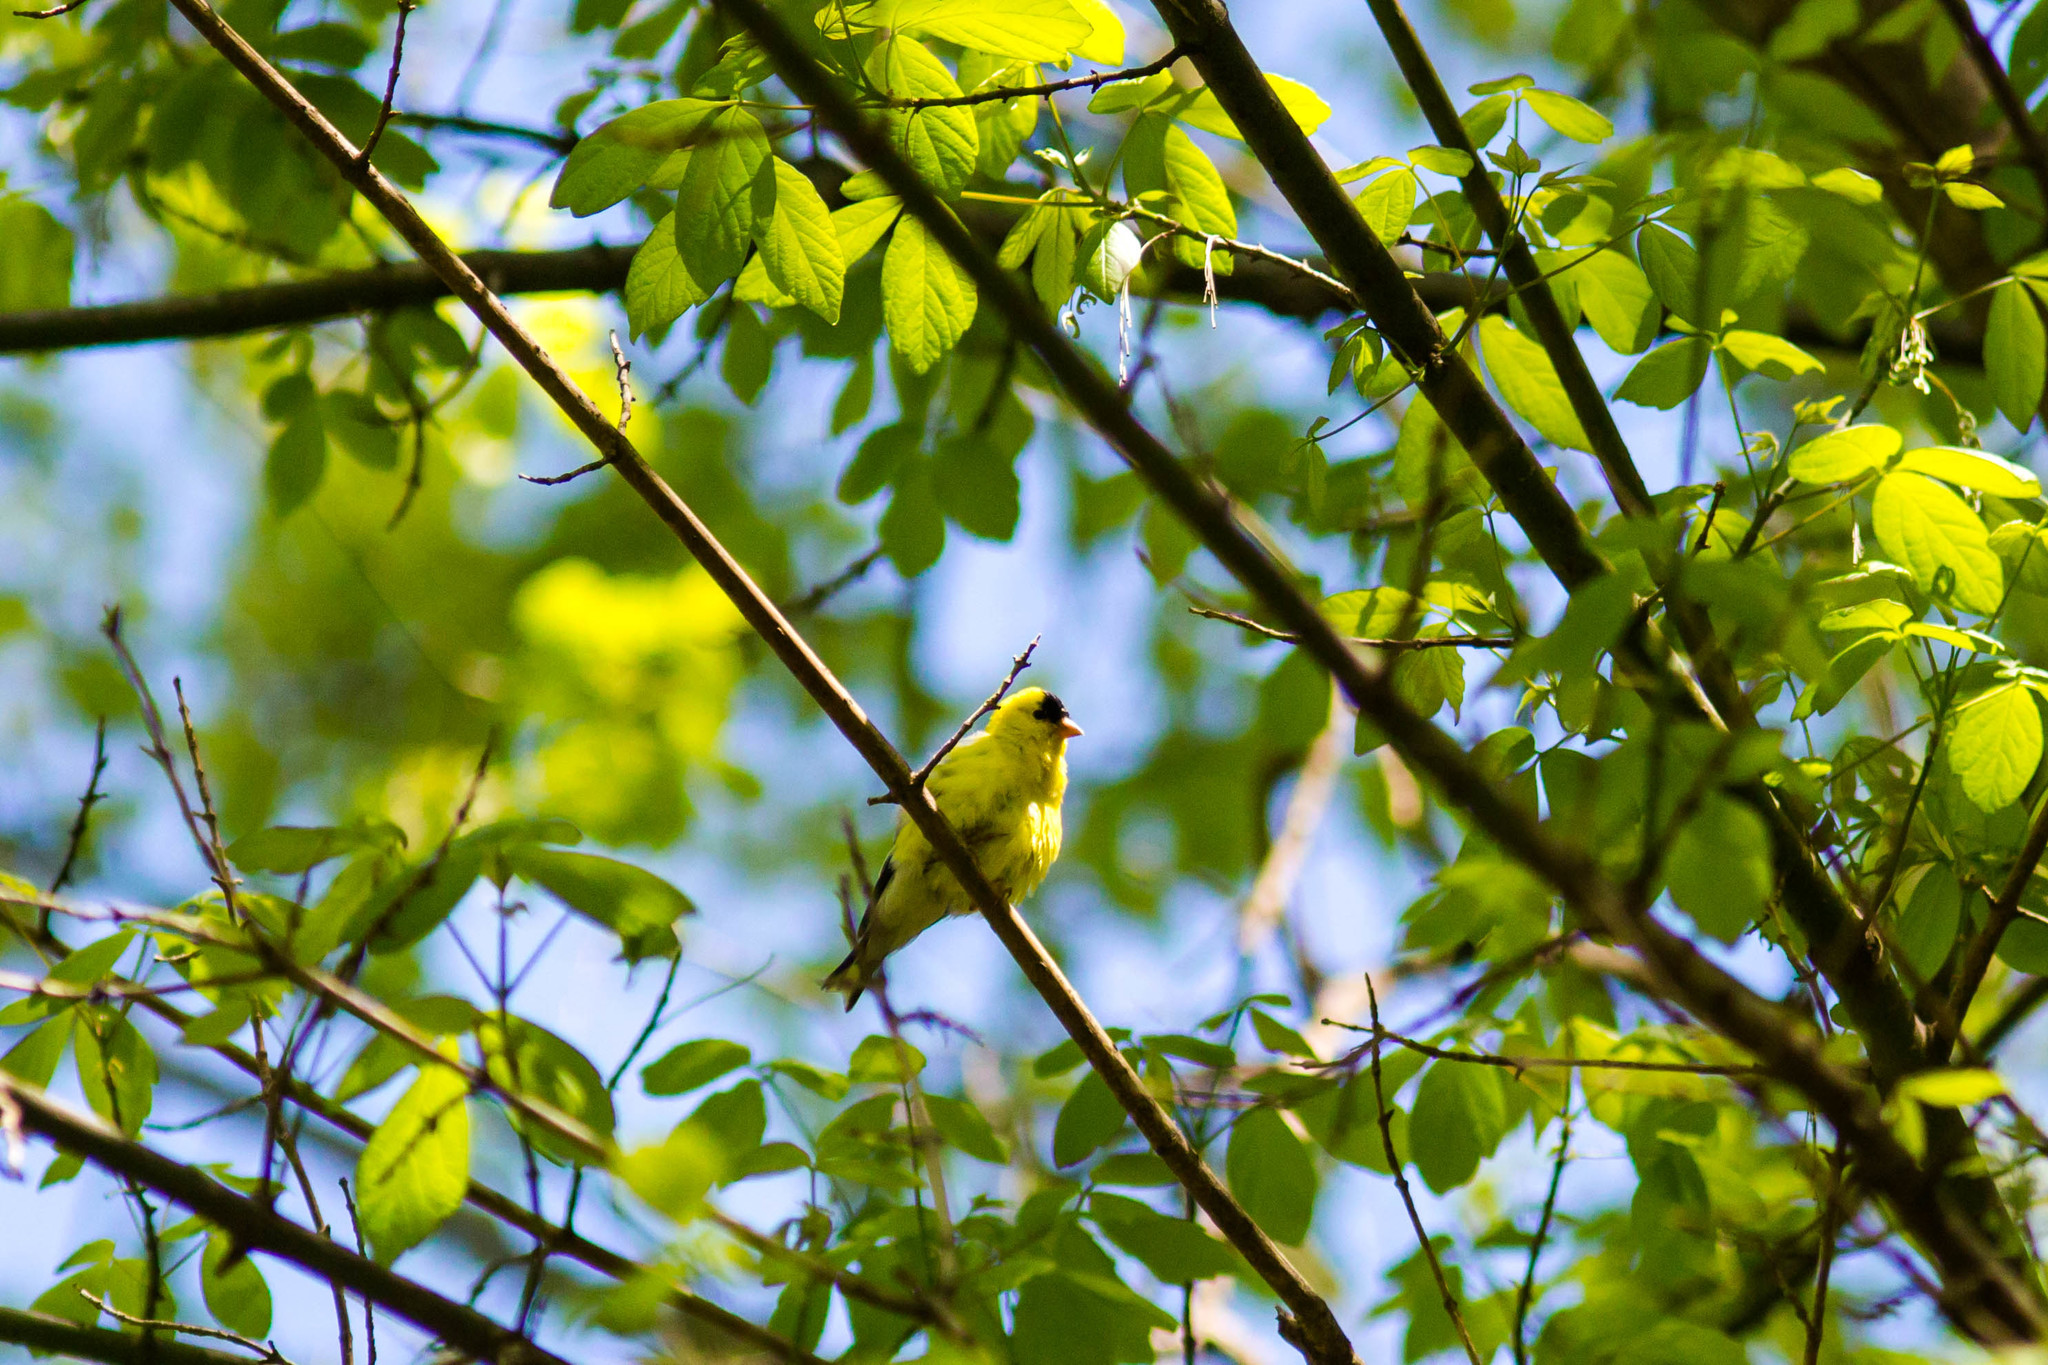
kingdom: Animalia
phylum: Chordata
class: Aves
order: Passeriformes
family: Fringillidae
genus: Spinus
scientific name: Spinus tristis
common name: American goldfinch
